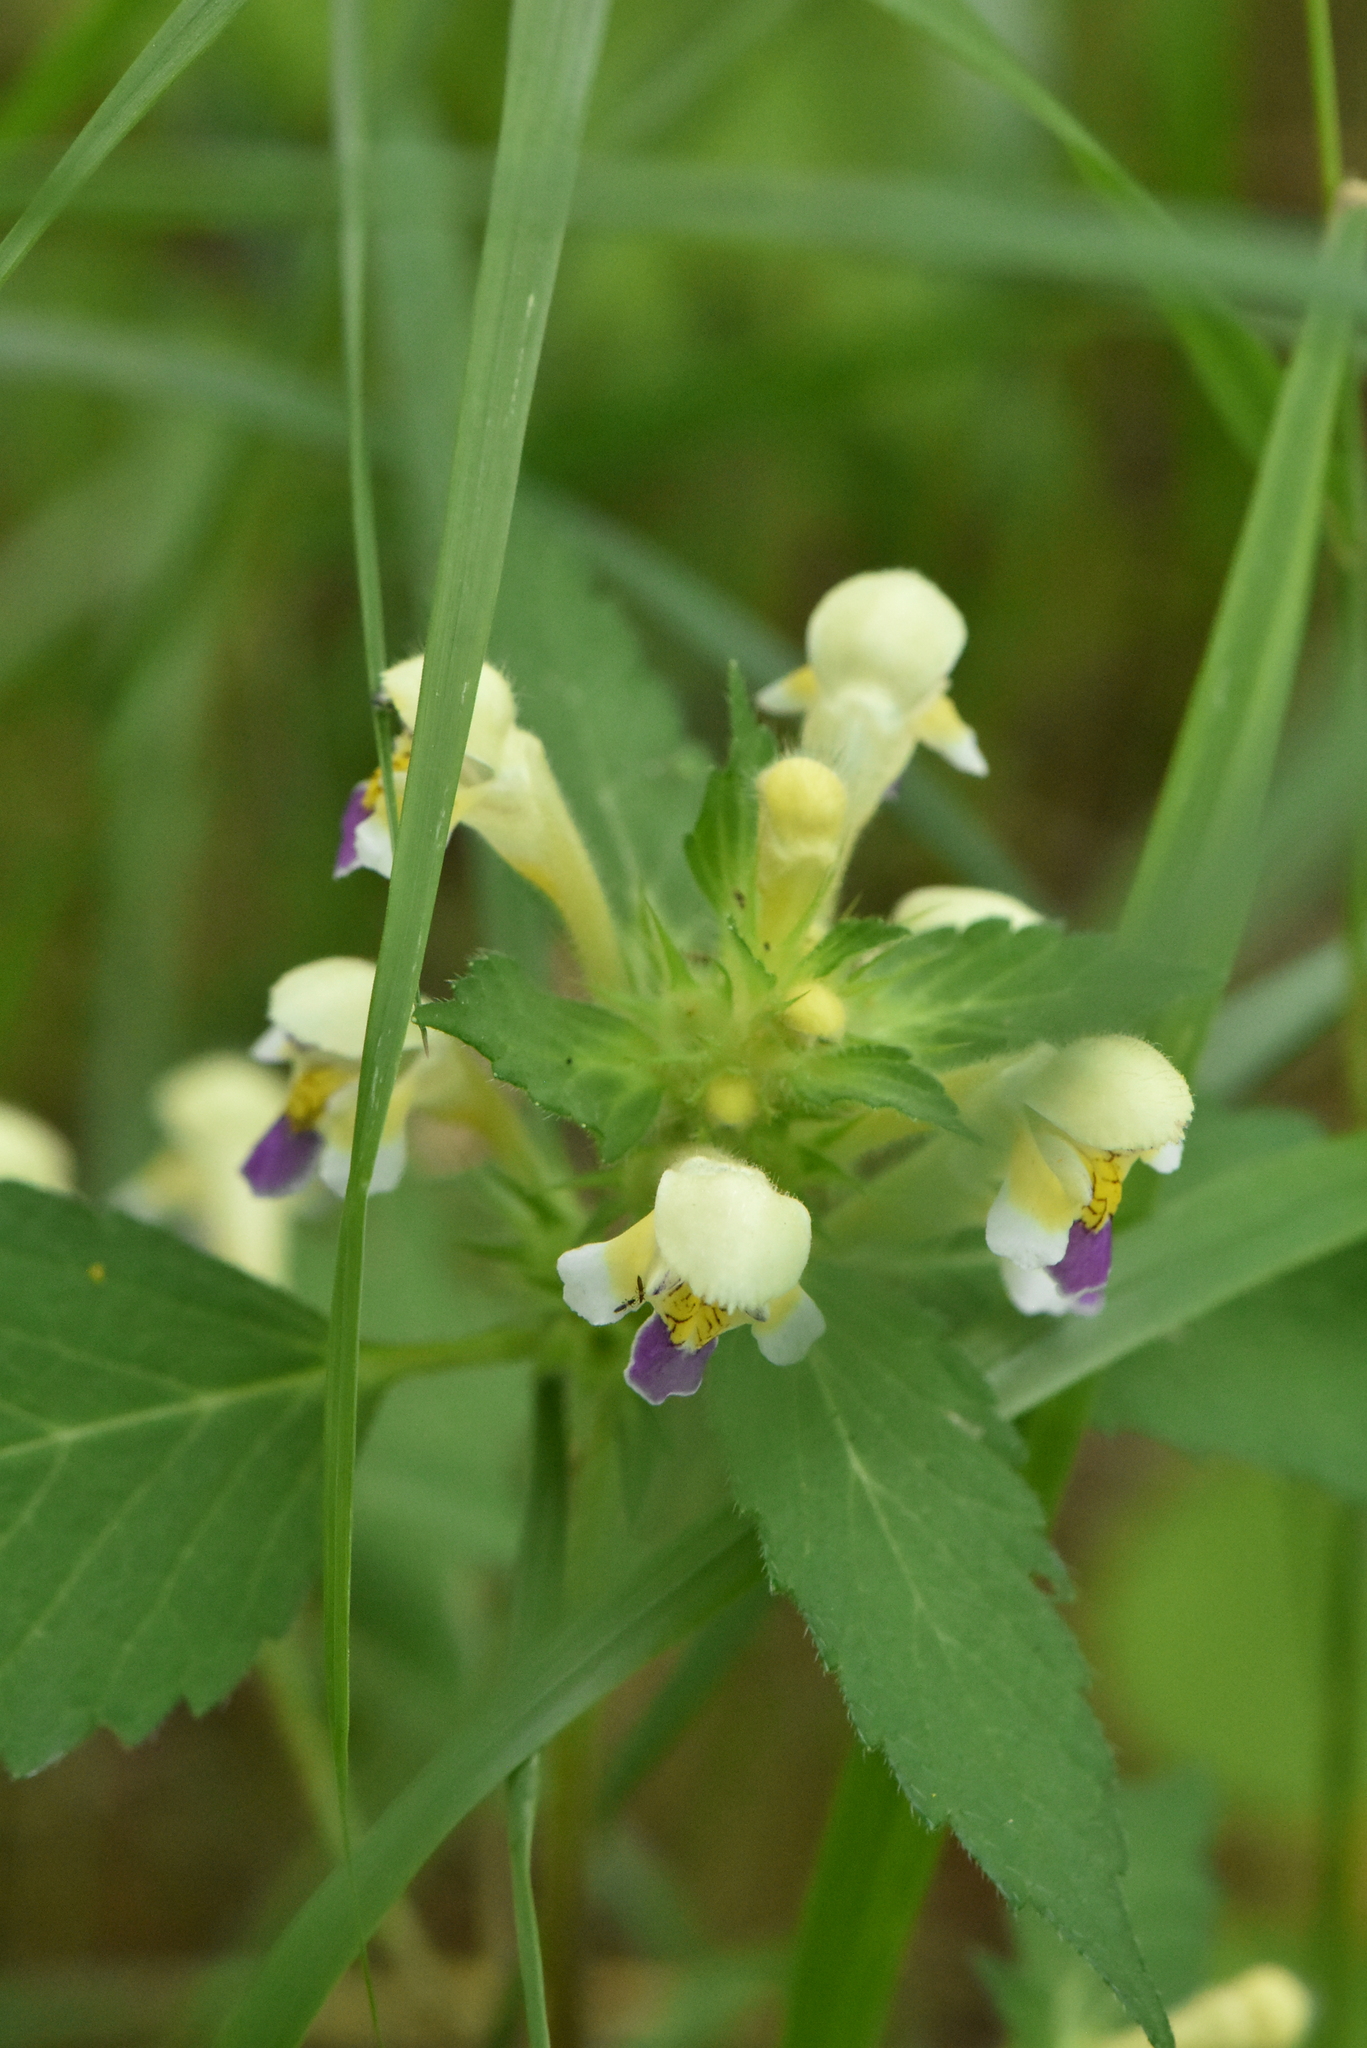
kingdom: Plantae
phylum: Tracheophyta
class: Magnoliopsida
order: Lamiales
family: Lamiaceae
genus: Galeopsis
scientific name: Galeopsis speciosa
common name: Large-flowered hemp-nettle
